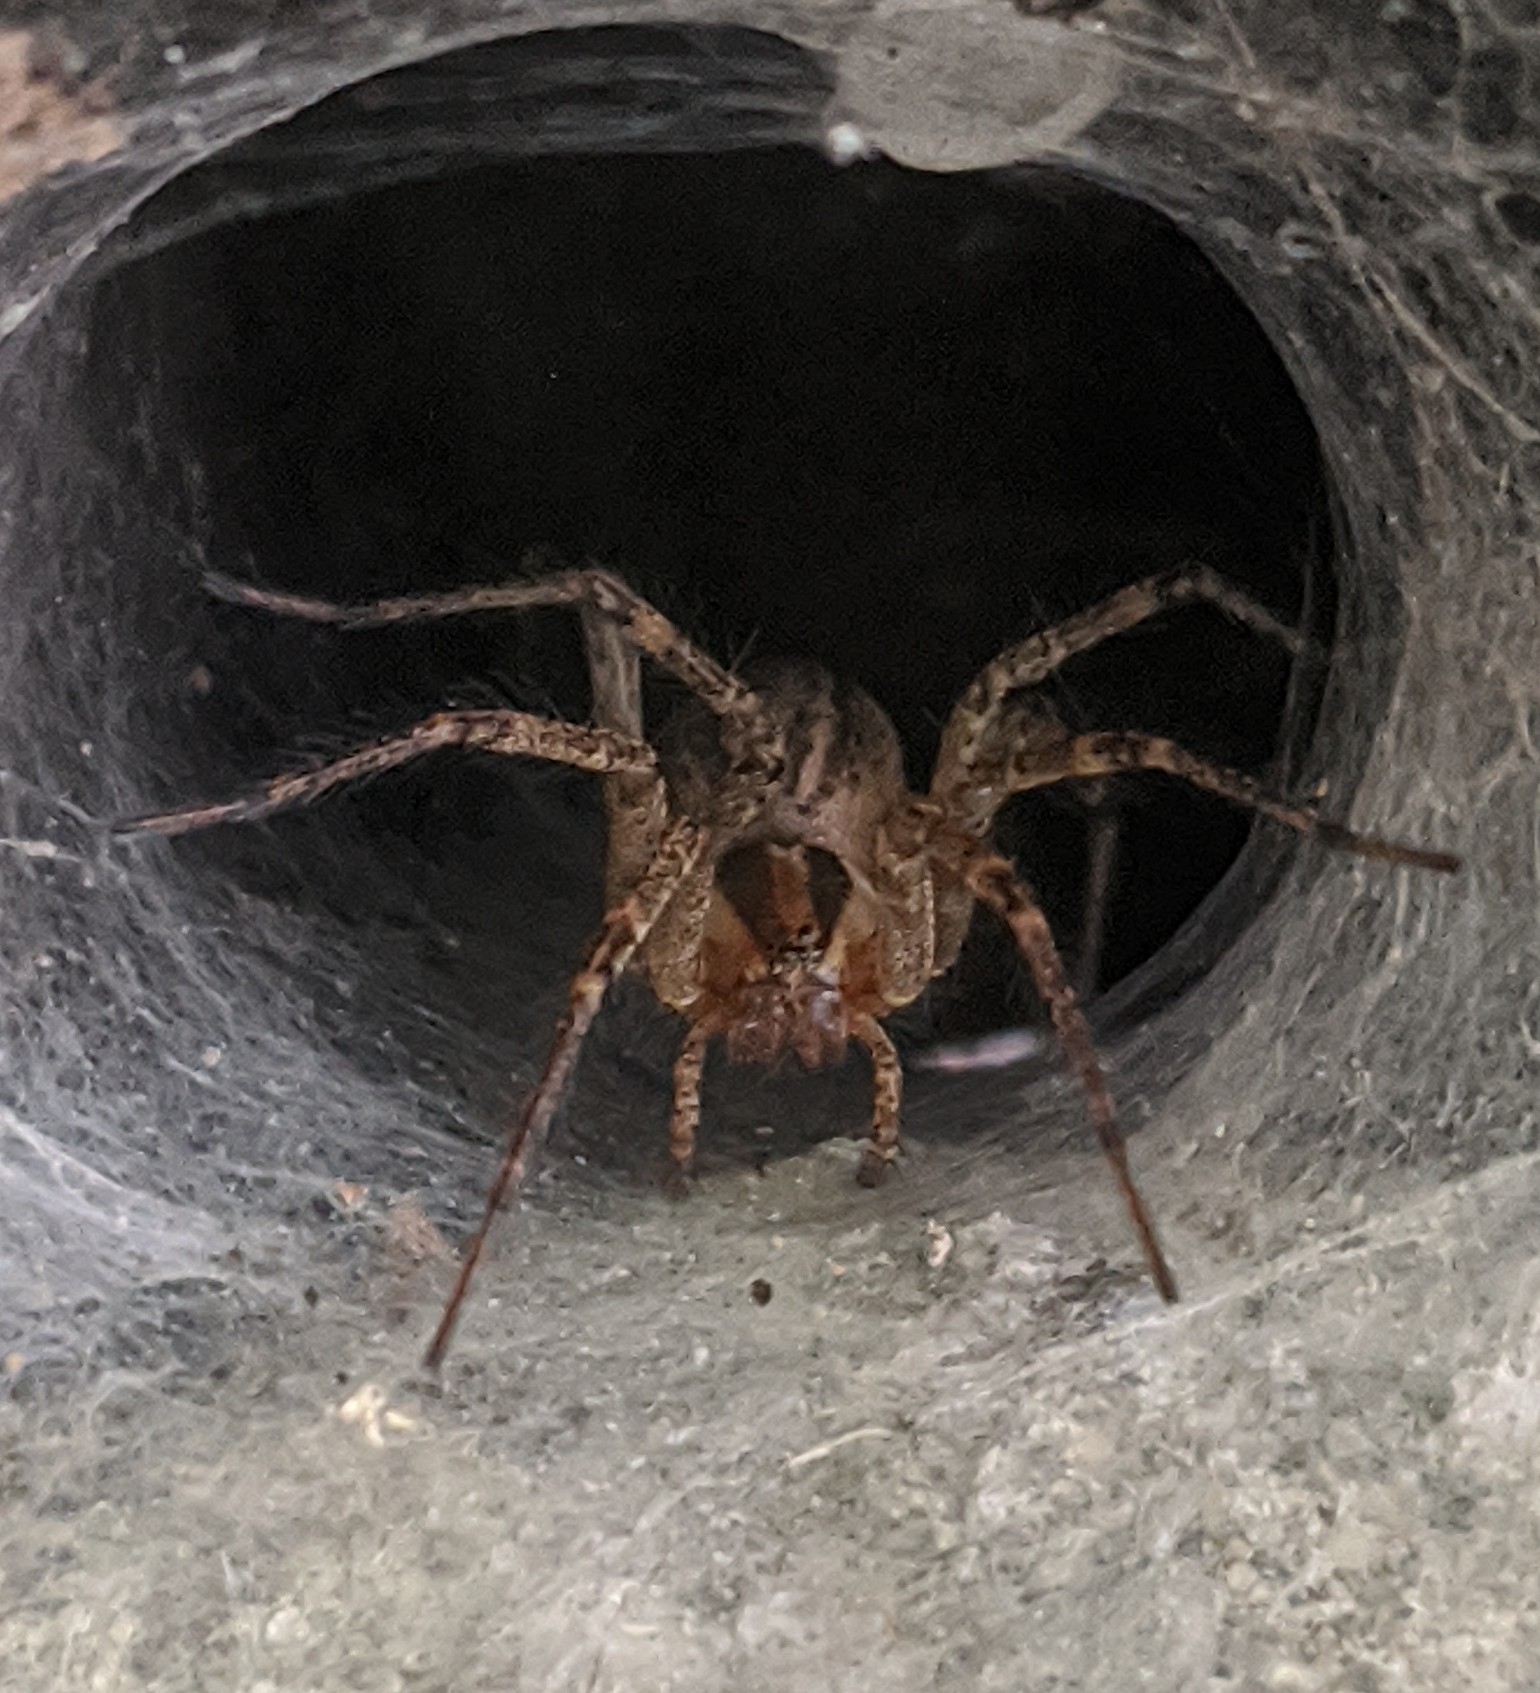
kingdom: Animalia
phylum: Arthropoda
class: Arachnida
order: Araneae
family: Agelenidae
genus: Agelenopsis
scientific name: Agelenopsis
